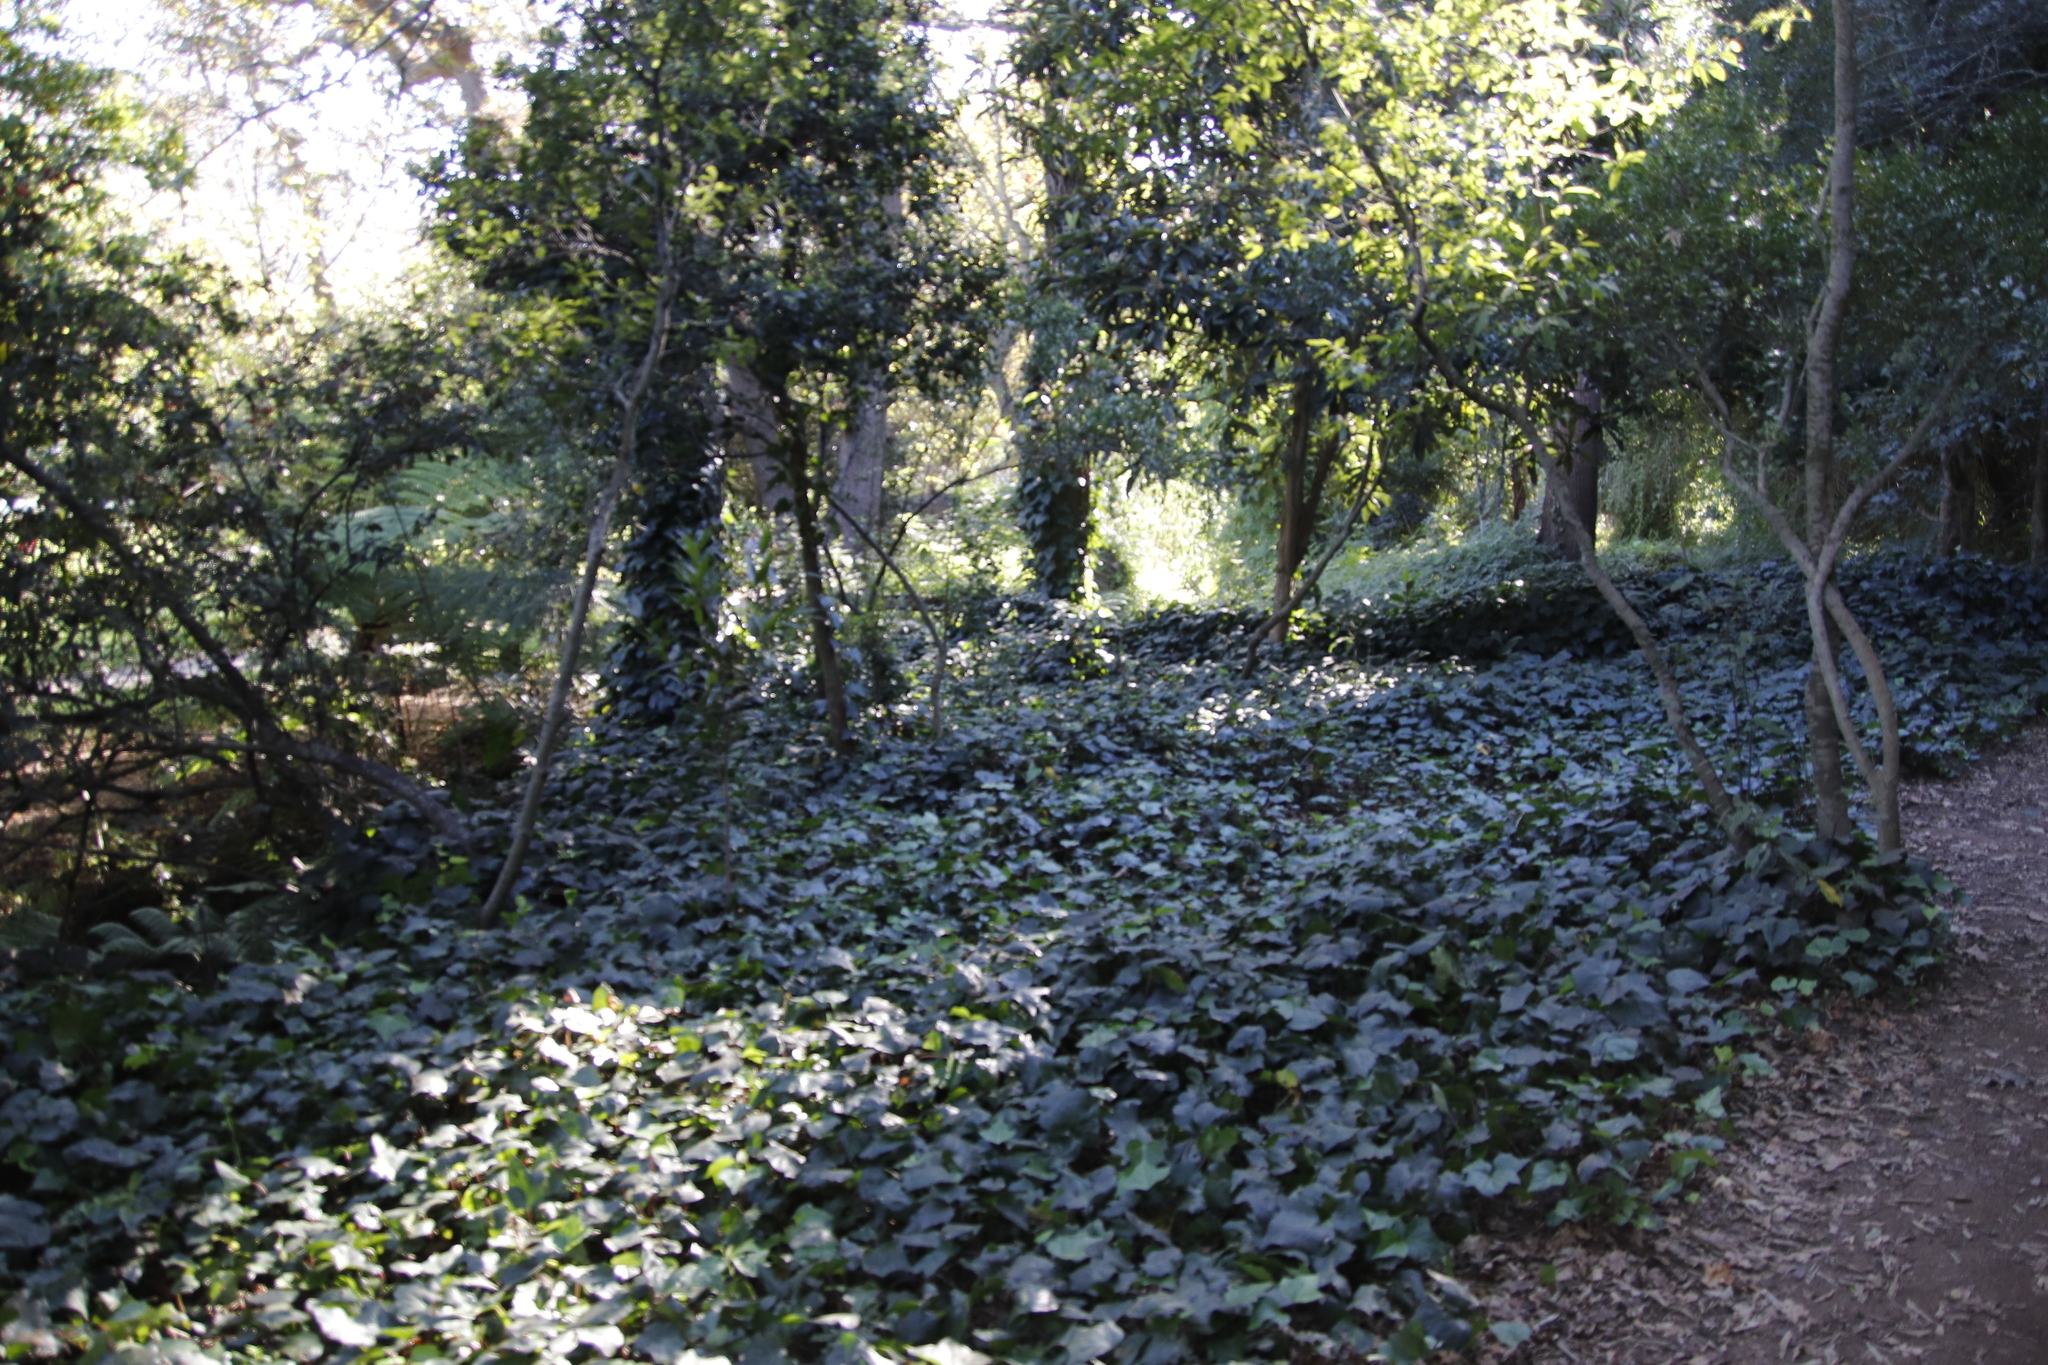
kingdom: Plantae
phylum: Tracheophyta
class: Magnoliopsida
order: Apiales
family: Araliaceae
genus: Hedera
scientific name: Hedera canariensis
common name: Madeira ivy
